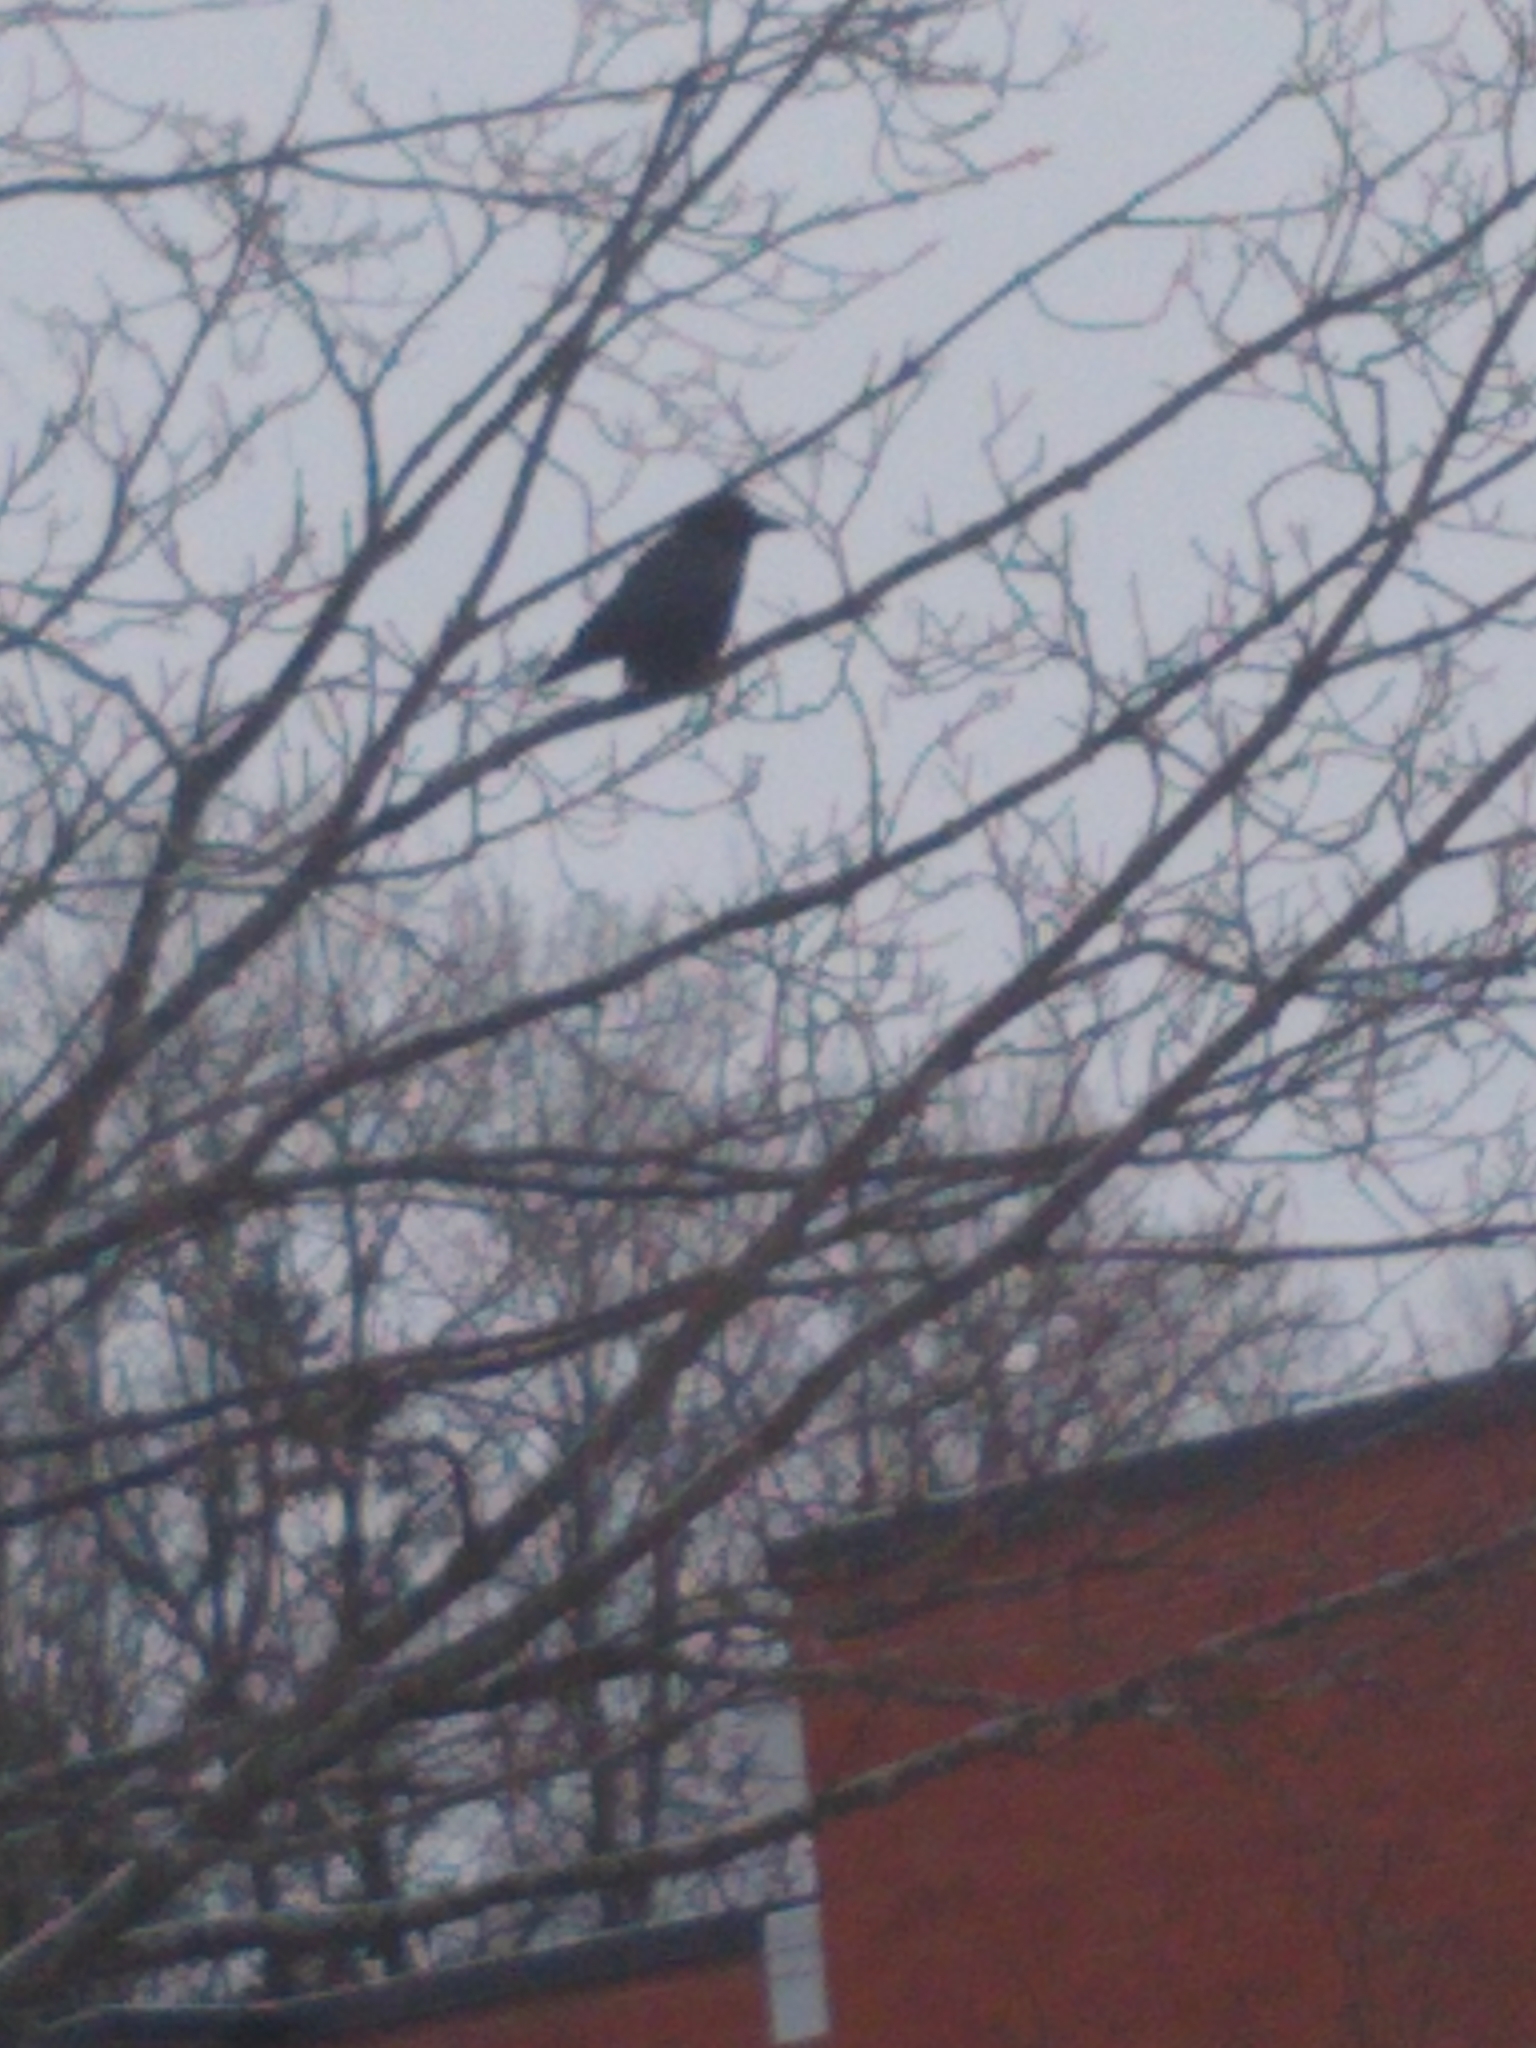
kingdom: Animalia
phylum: Chordata
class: Aves
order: Passeriformes
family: Corvidae
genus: Corvus
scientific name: Corvus brachyrhynchos
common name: American crow
